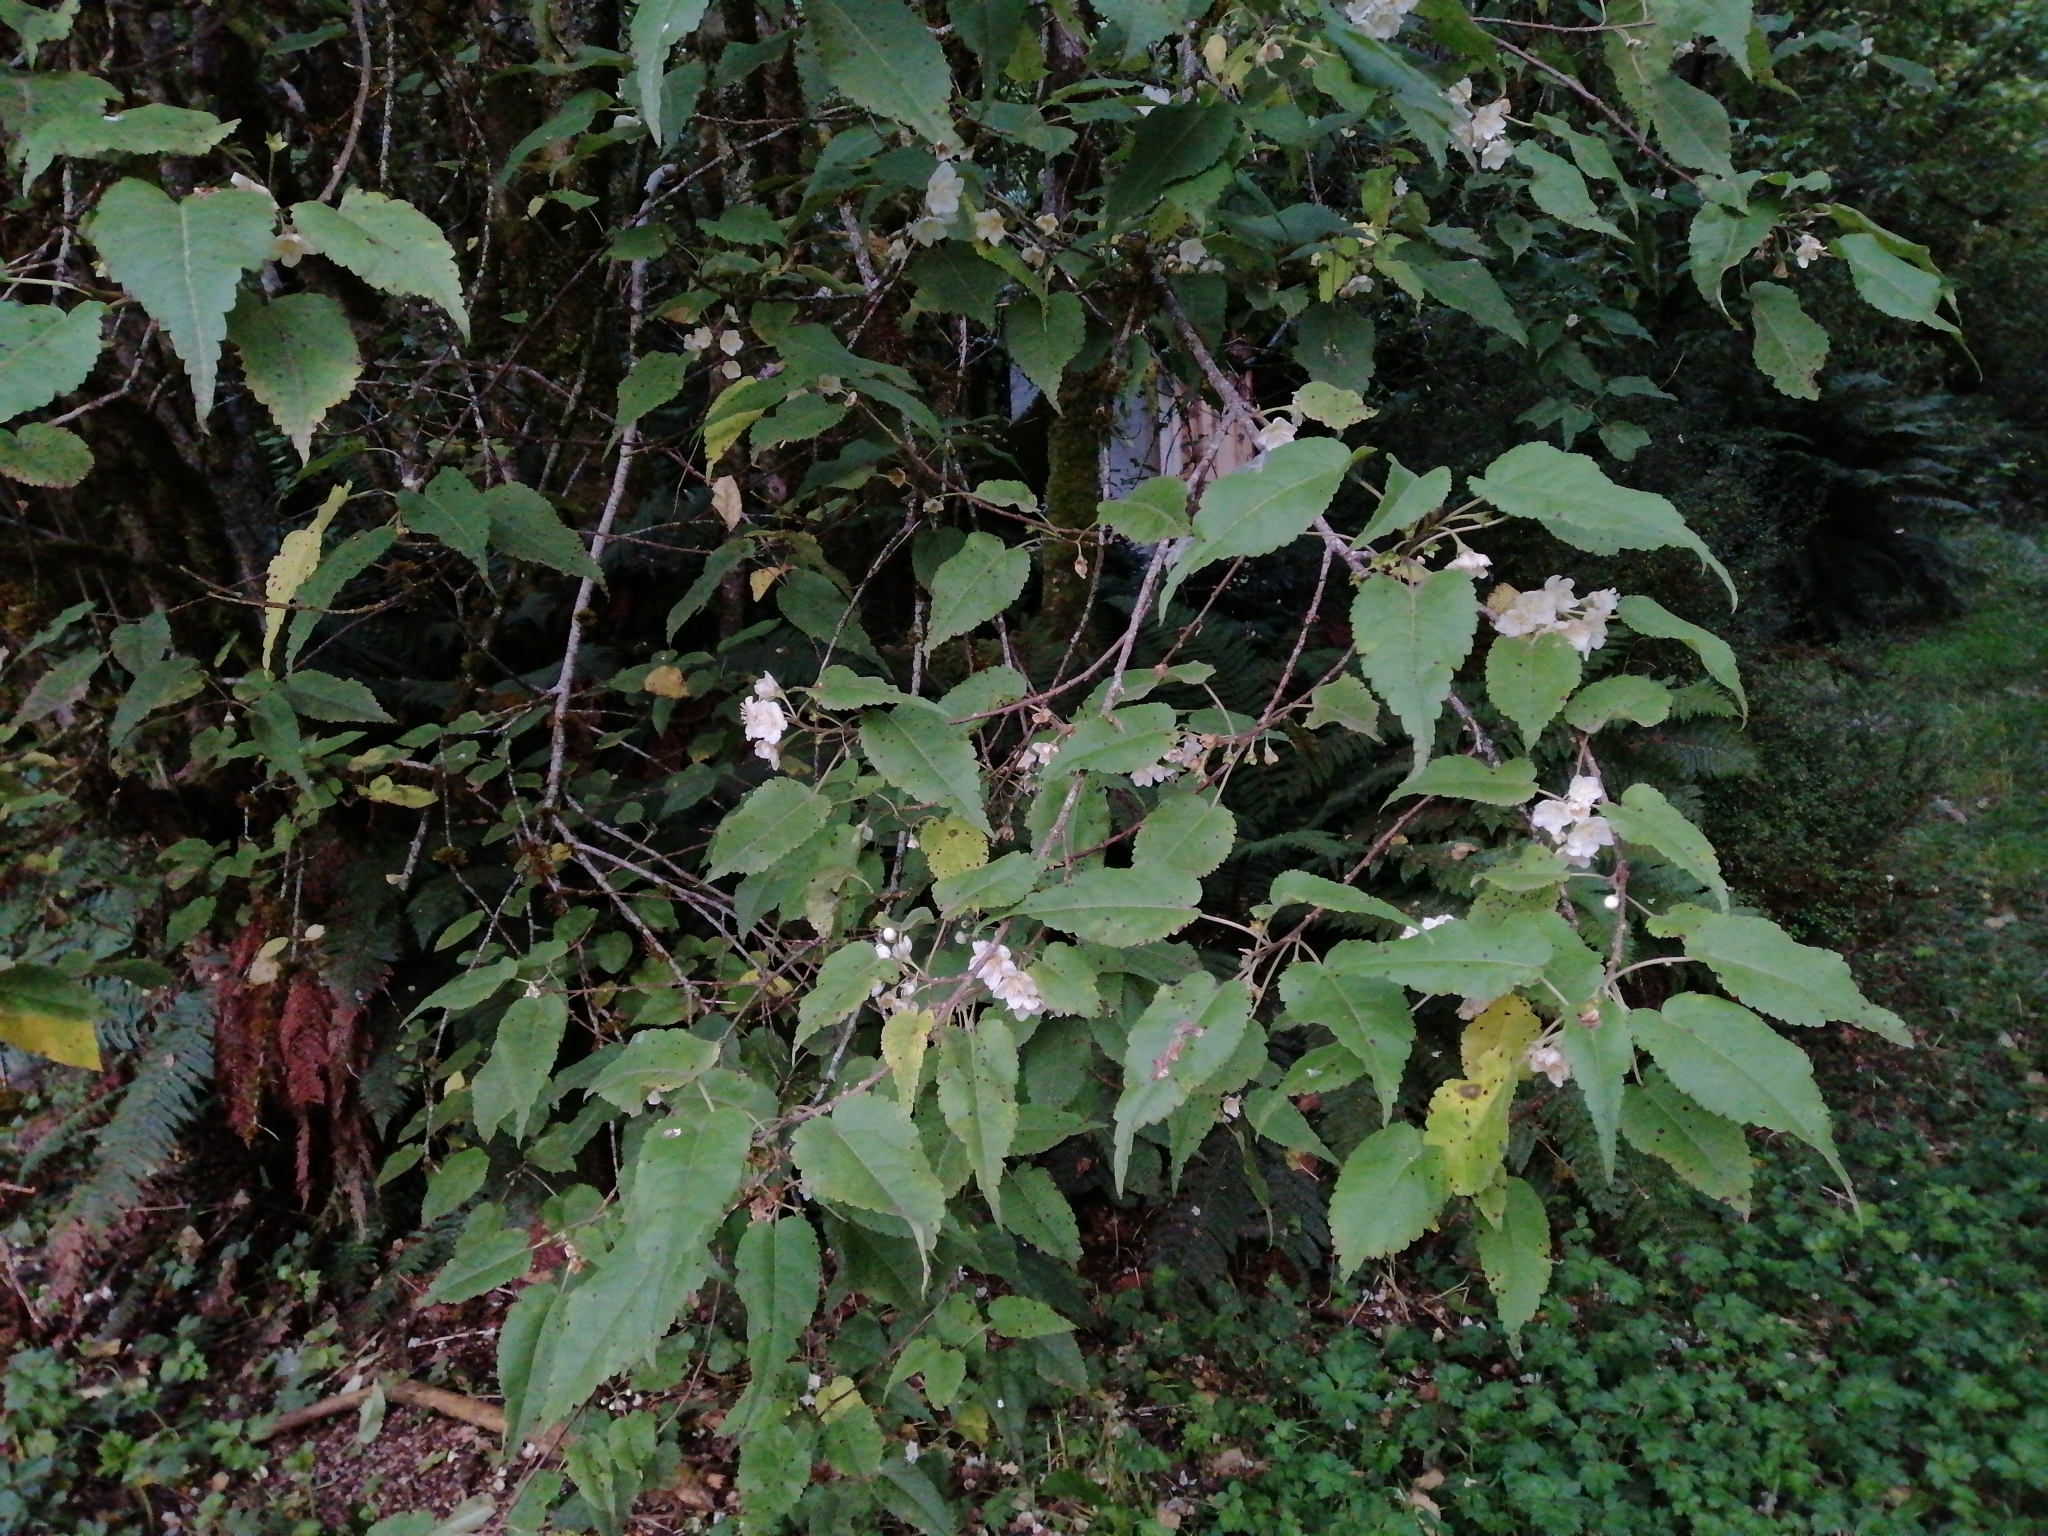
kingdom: Plantae
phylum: Tracheophyta
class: Magnoliopsida
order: Malvales
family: Malvaceae
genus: Hoheria
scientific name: Hoheria glabrata
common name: Mountain-ribbon
